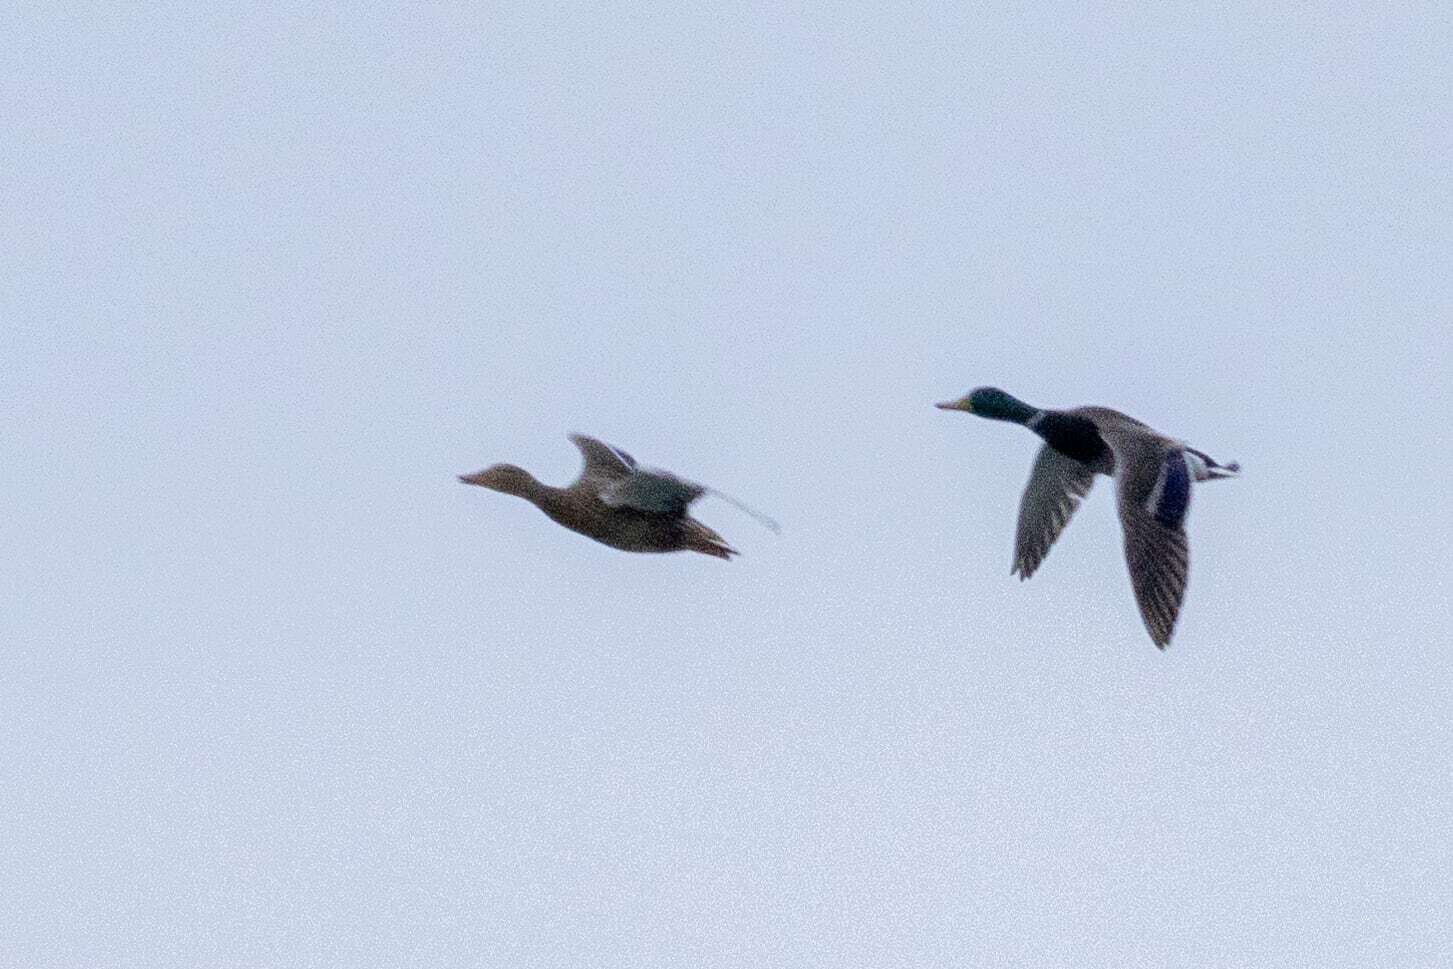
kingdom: Animalia
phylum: Chordata
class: Aves
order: Anseriformes
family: Anatidae
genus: Anas
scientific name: Anas platyrhynchos
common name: Mallard
